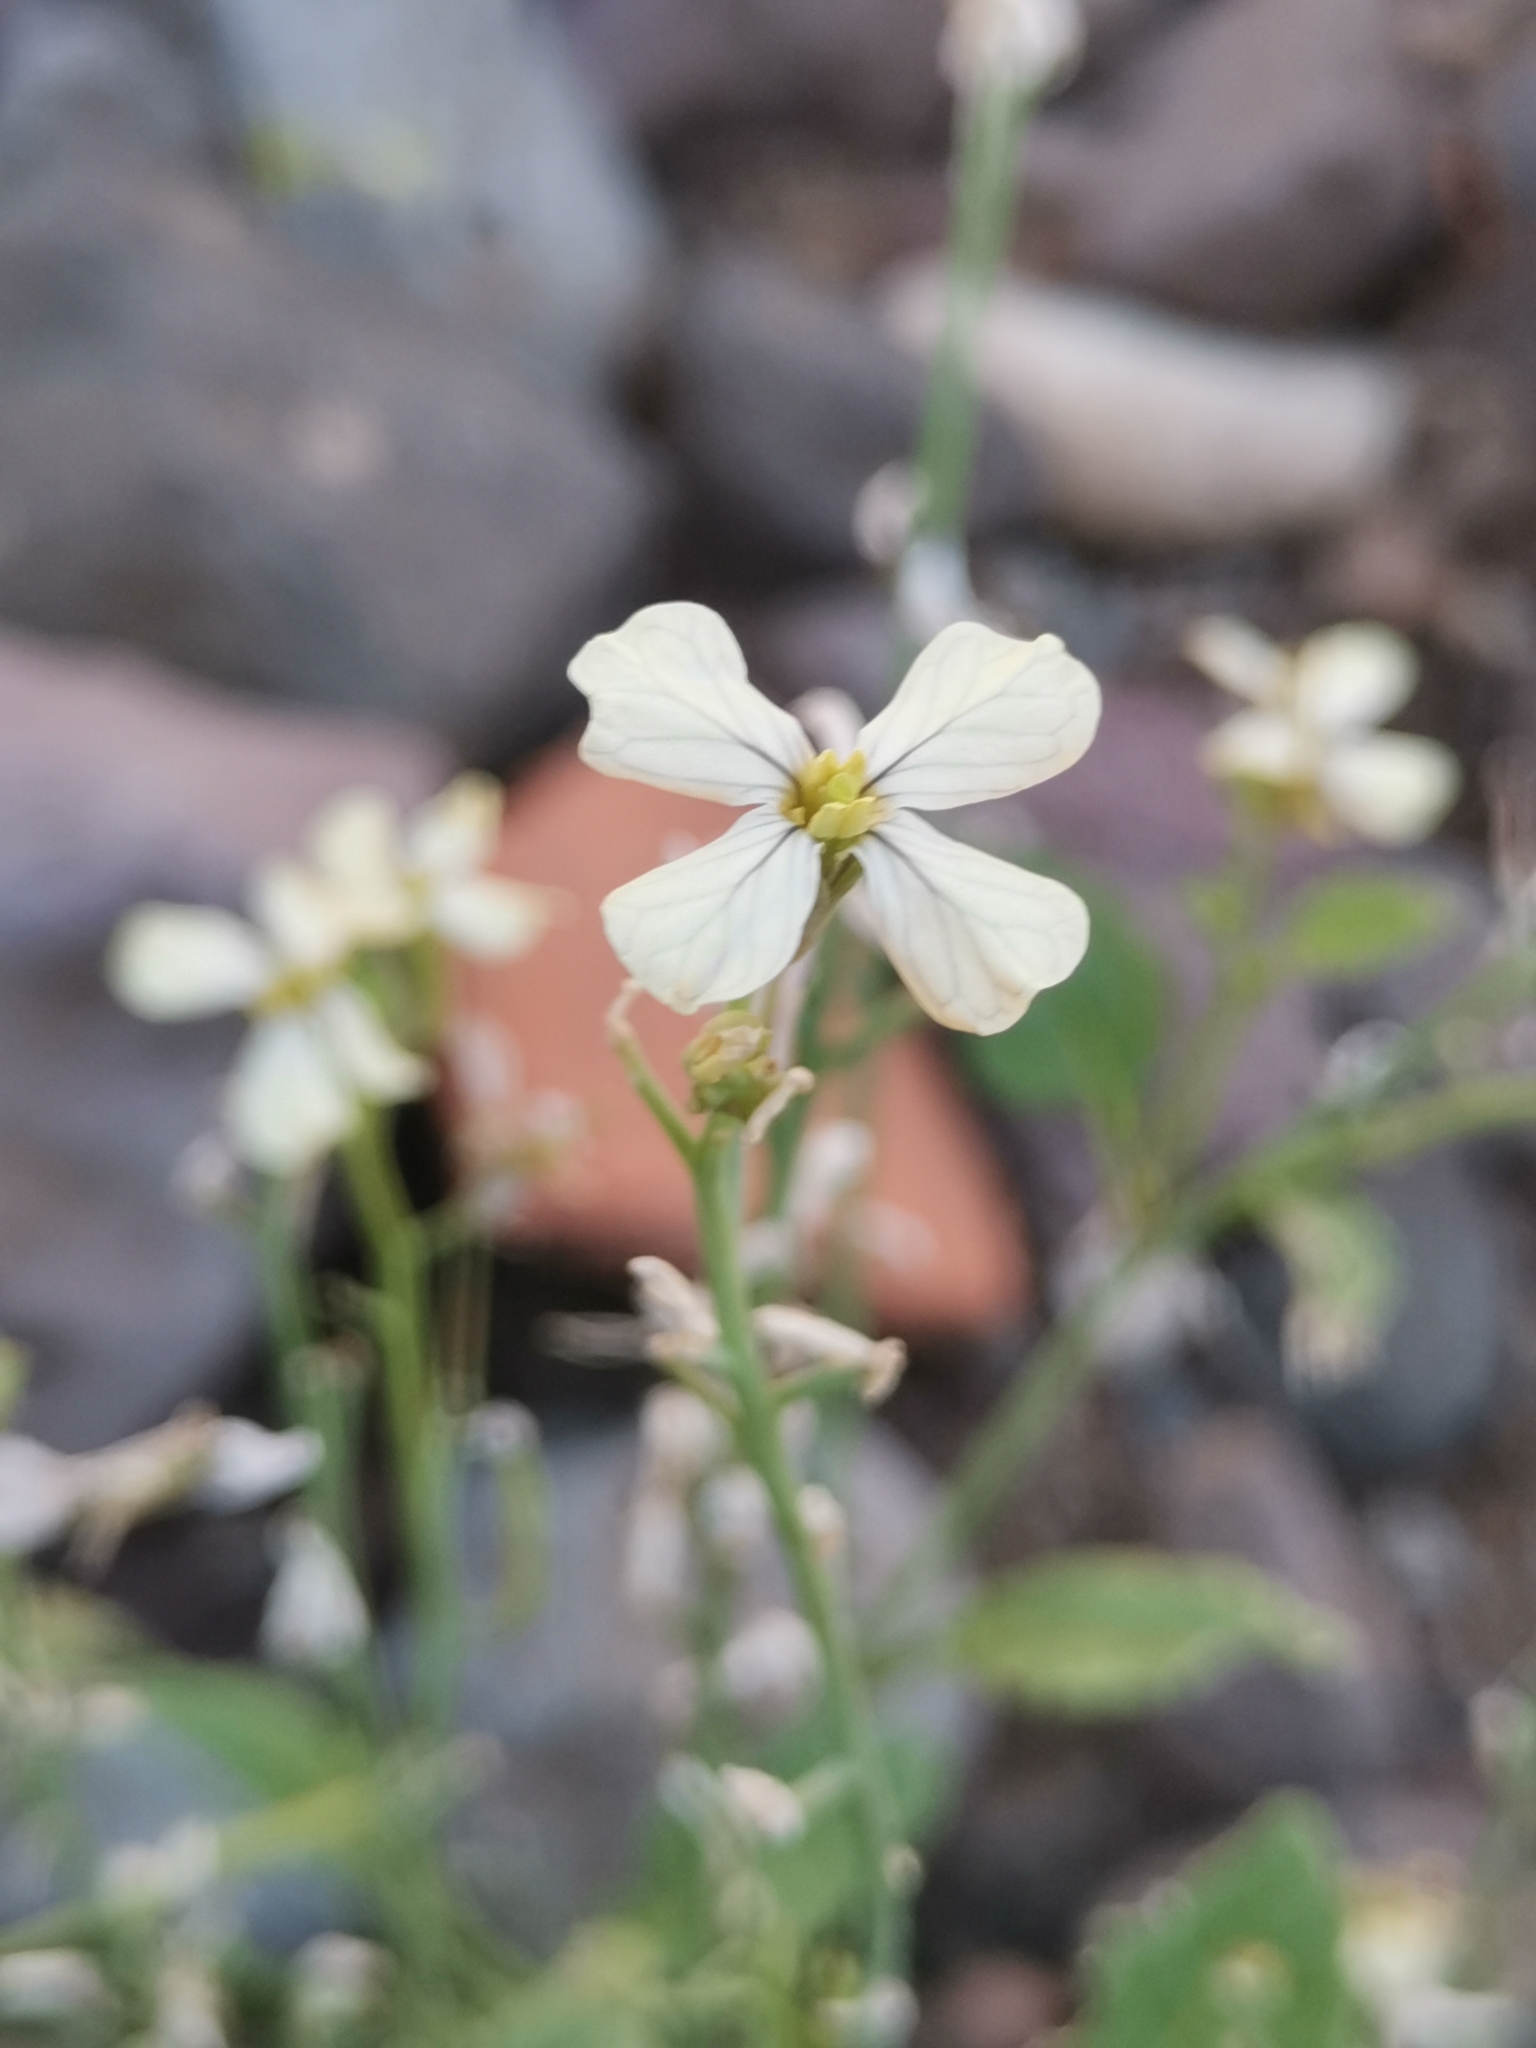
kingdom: Plantae
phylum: Tracheophyta
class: Magnoliopsida
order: Brassicales
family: Brassicaceae
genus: Raphanus
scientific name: Raphanus raphanistrum
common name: Wild radish
